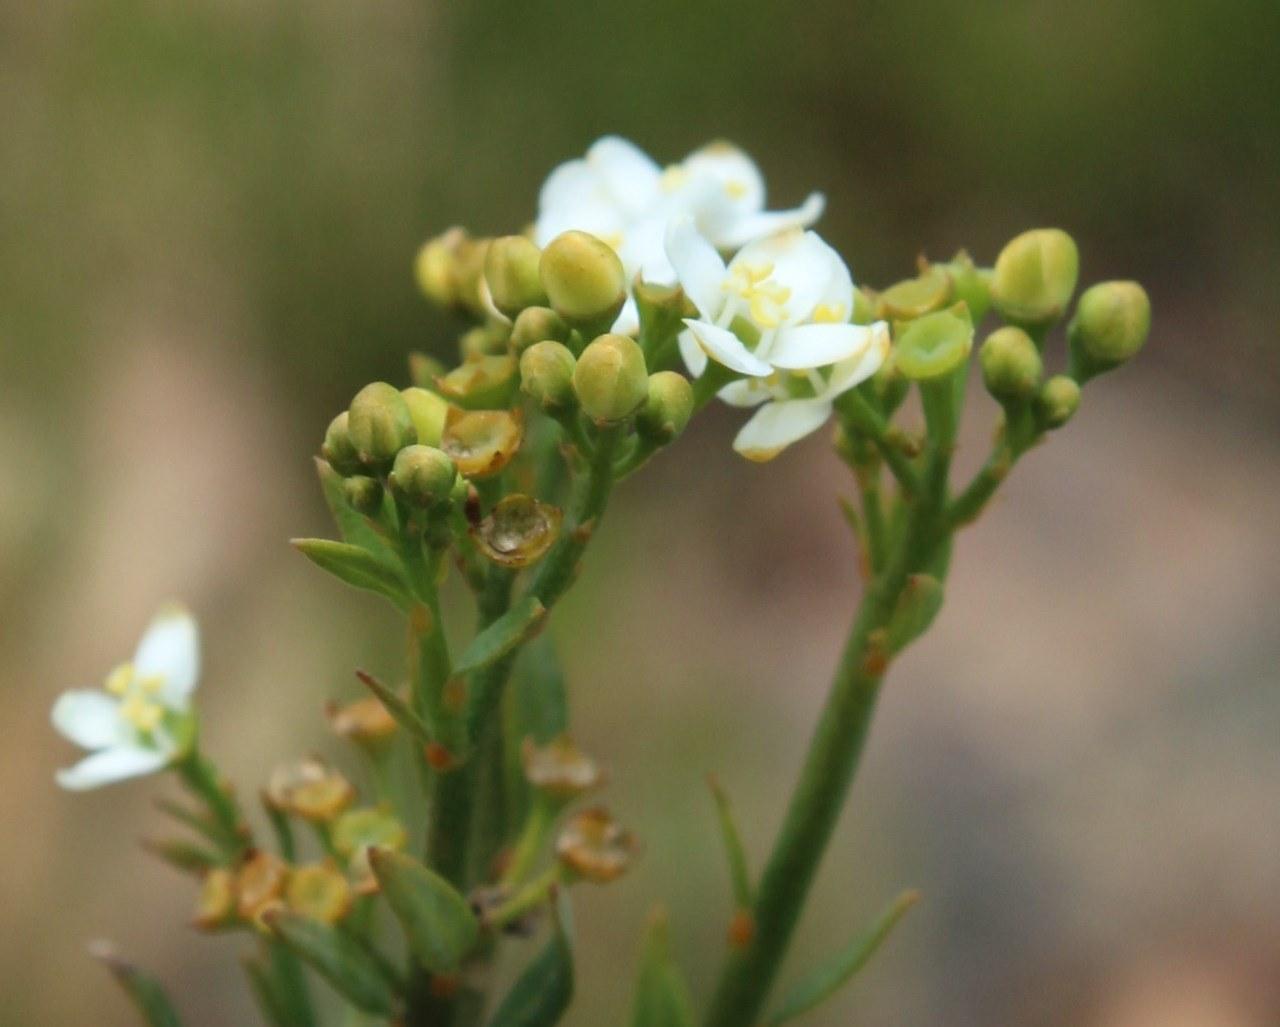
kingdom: Plantae
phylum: Tracheophyta
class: Magnoliopsida
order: Solanales
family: Montiniaceae
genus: Montinia
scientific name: Montinia caryophyllacea
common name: Wild clove-bush
